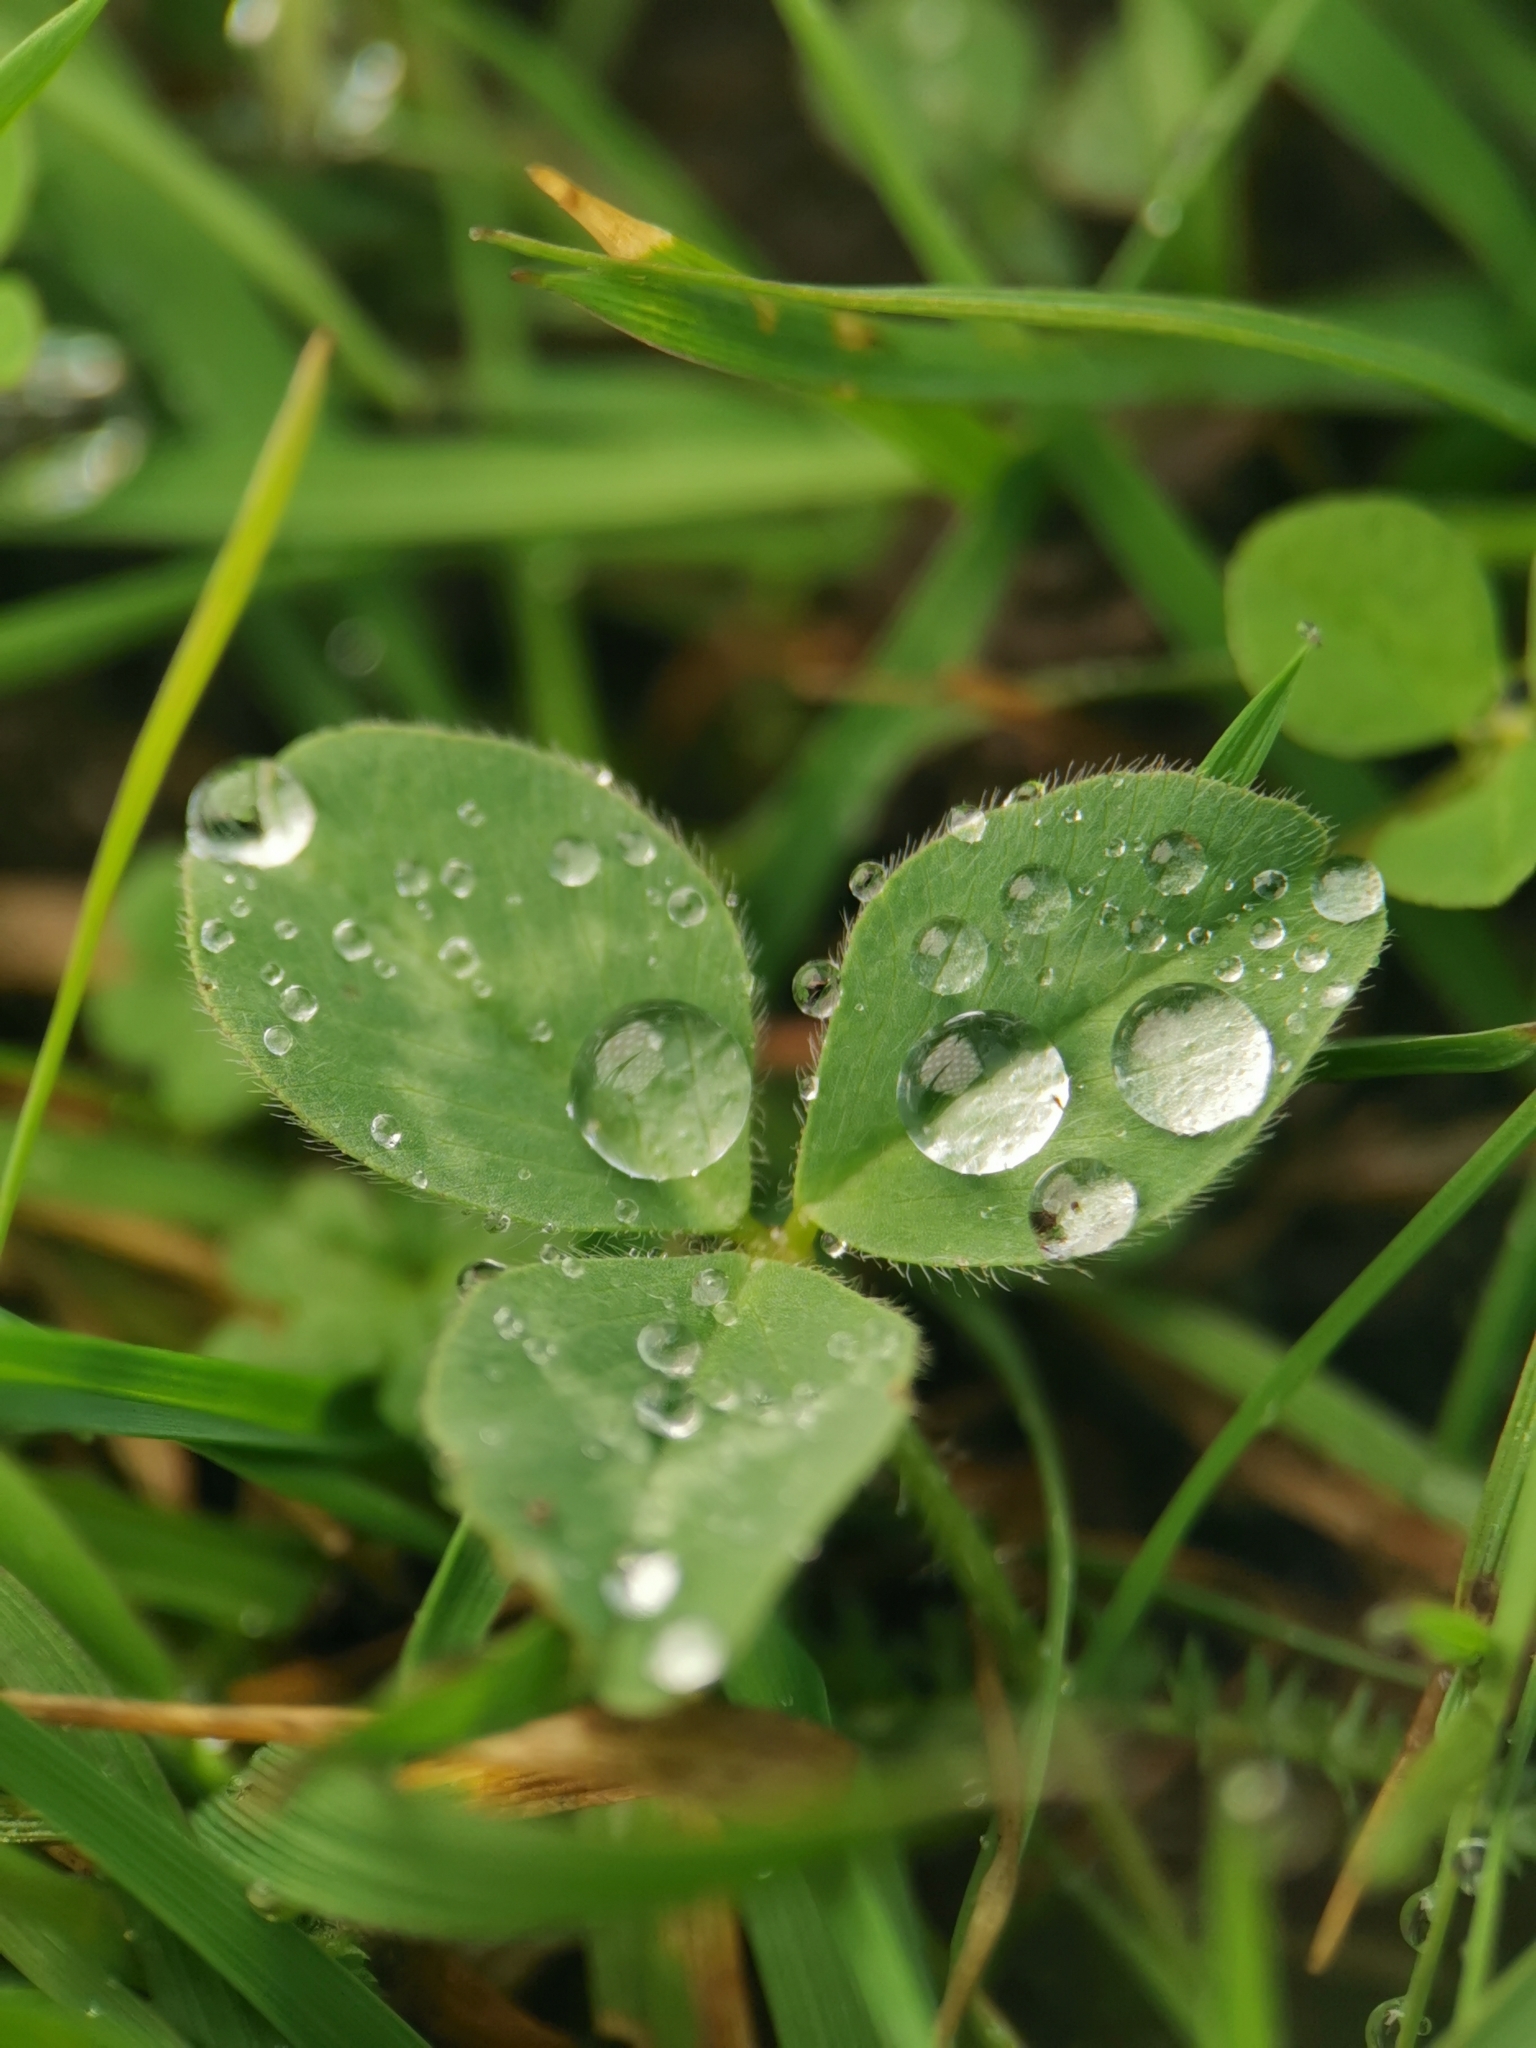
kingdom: Plantae
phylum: Tracheophyta
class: Magnoliopsida
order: Fabales
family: Fabaceae
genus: Trifolium
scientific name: Trifolium pratense
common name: Red clover
